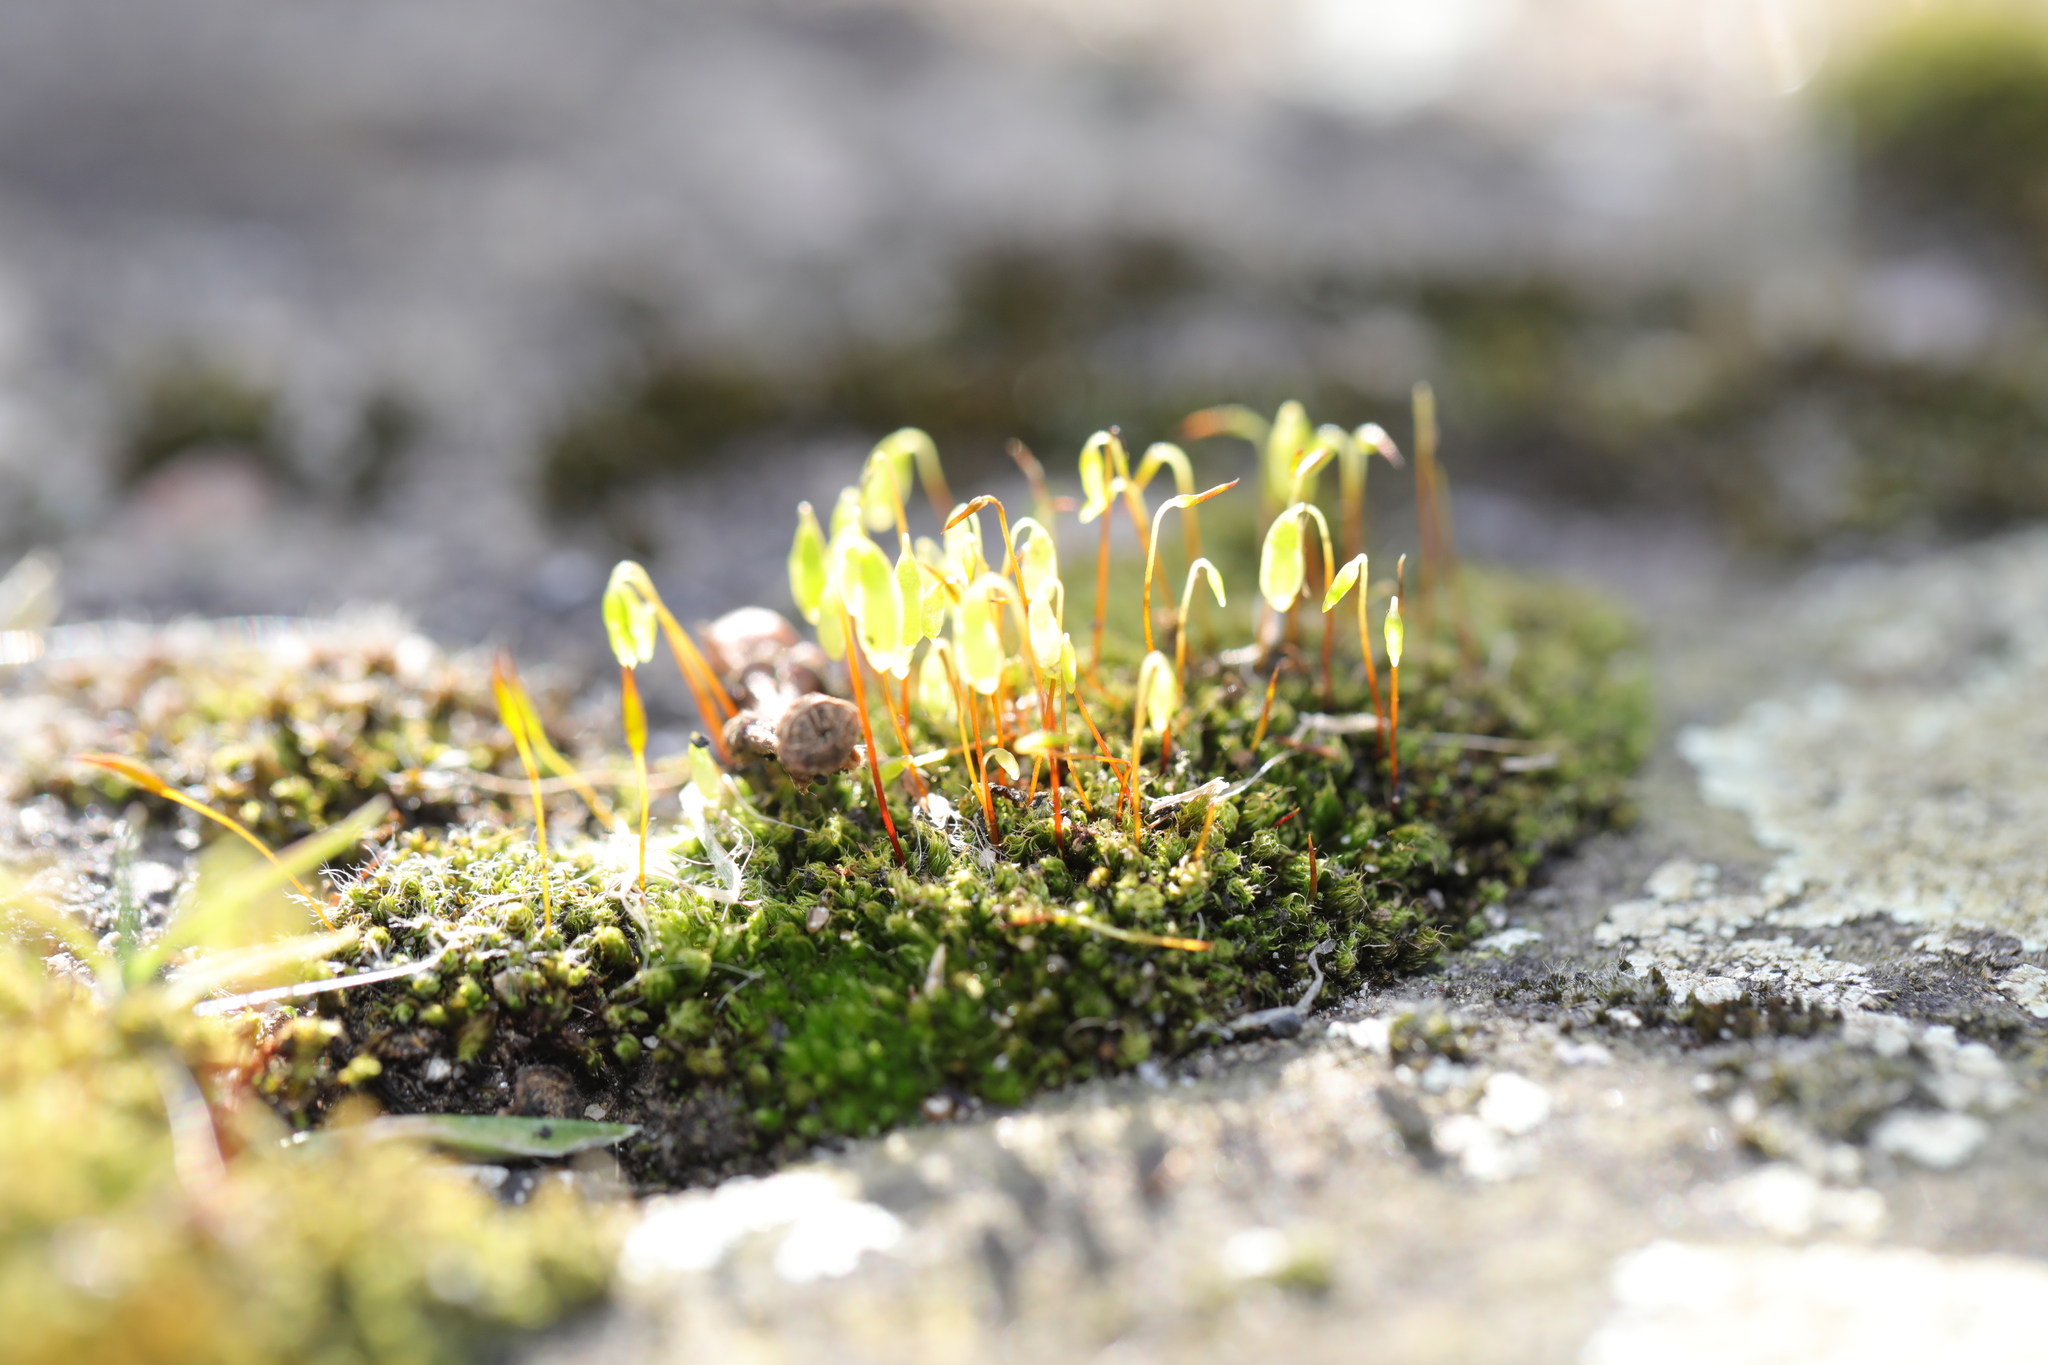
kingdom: Plantae
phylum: Bryophyta
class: Bryopsida
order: Bryales
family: Bryaceae
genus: Rosulabryum
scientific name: Rosulabryum capillare
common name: Capillary thread-moss
